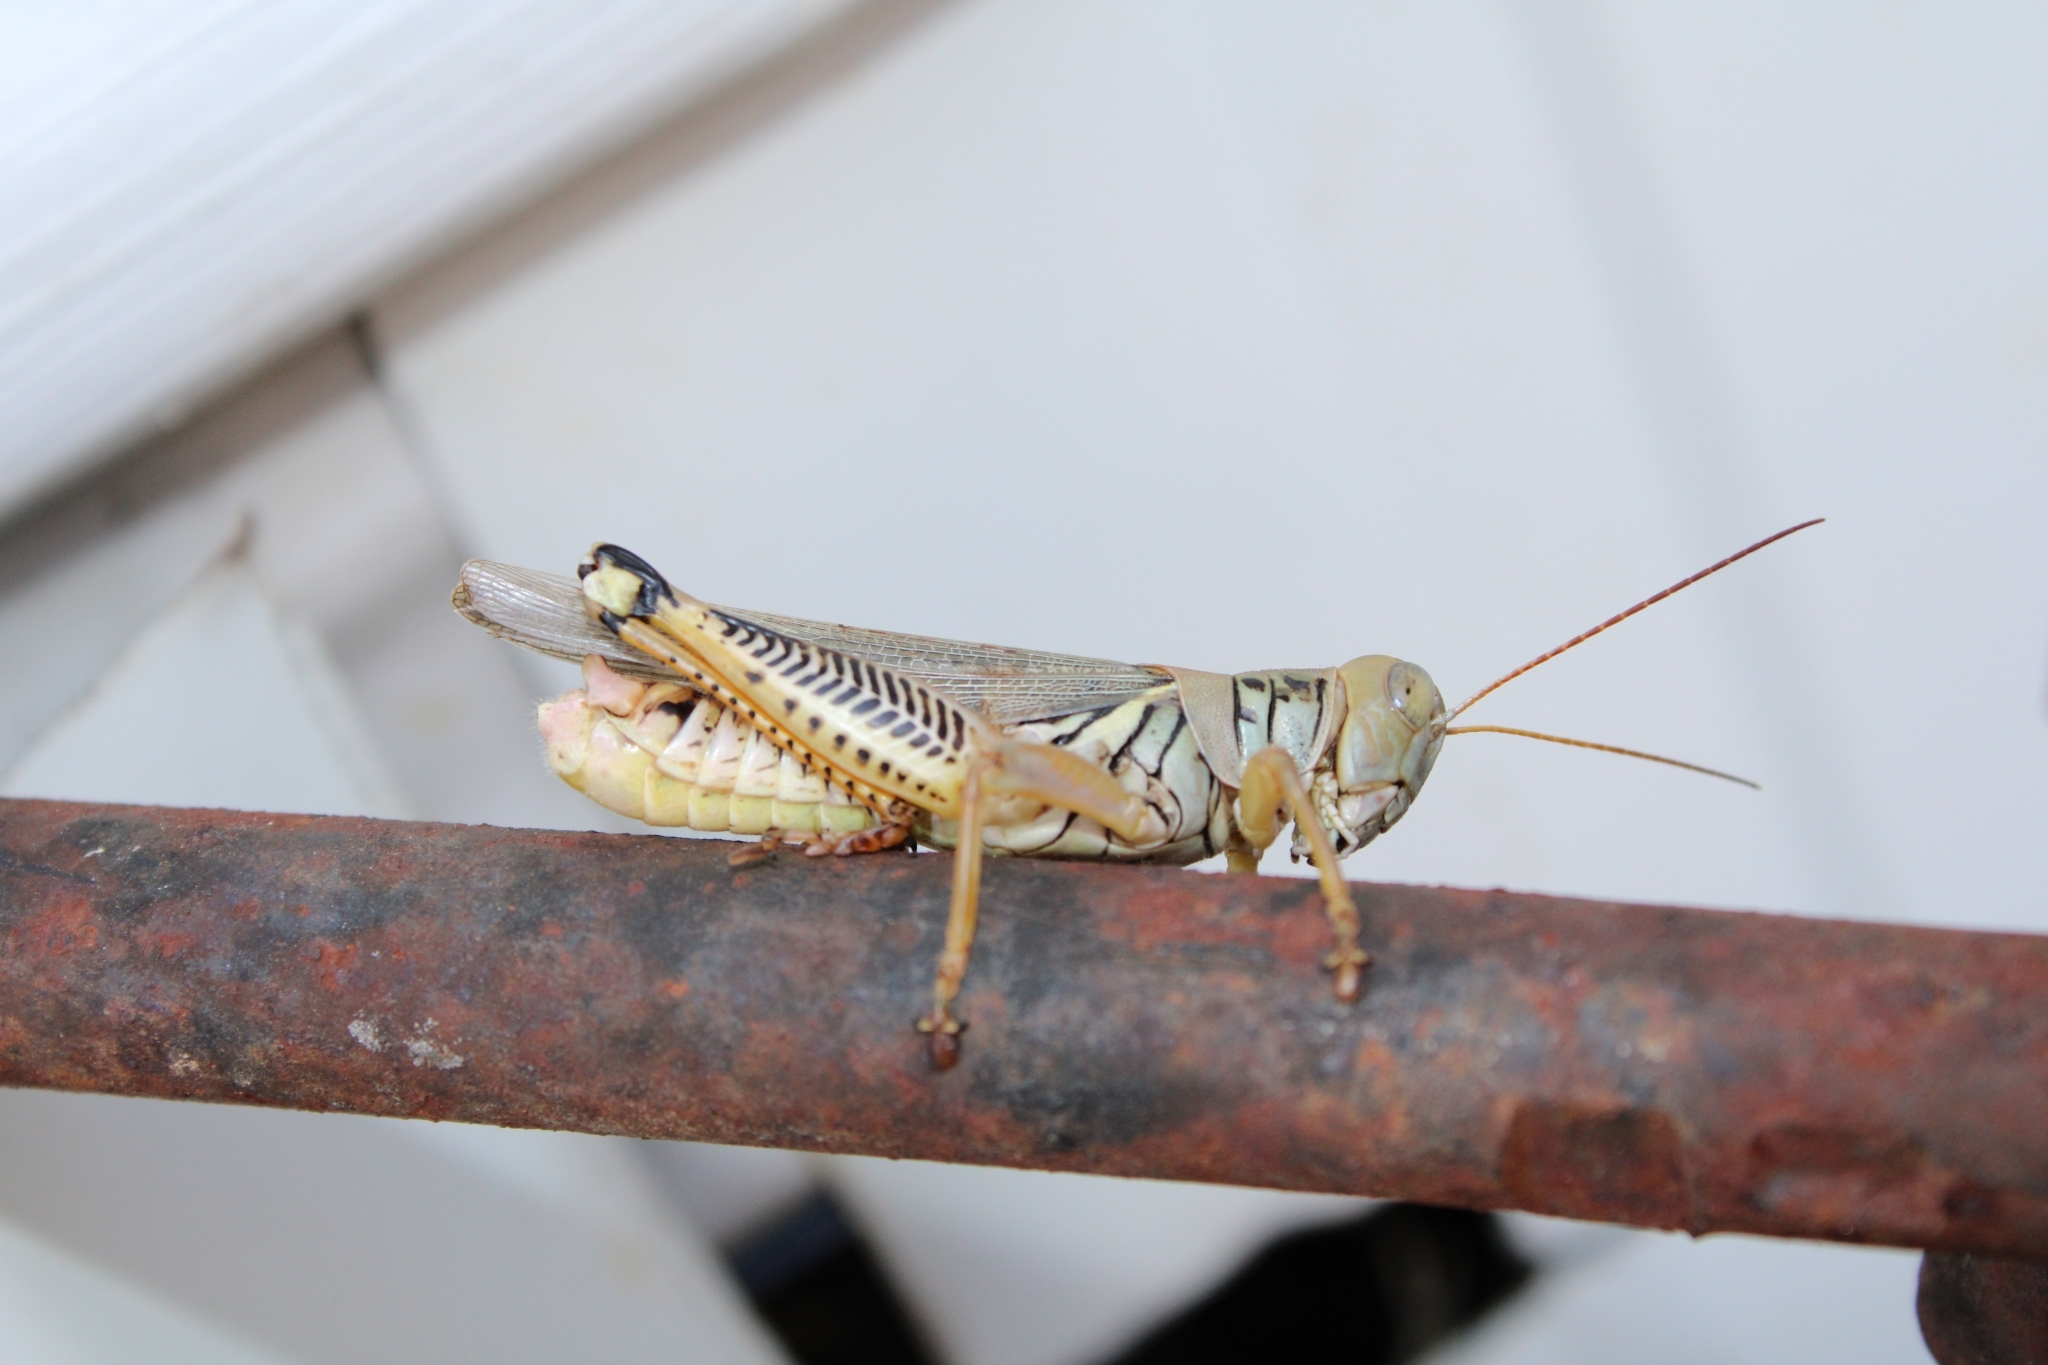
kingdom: Animalia
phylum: Arthropoda
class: Insecta
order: Orthoptera
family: Acrididae
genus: Melanoplus
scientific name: Melanoplus differentialis
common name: Differential grasshopper
